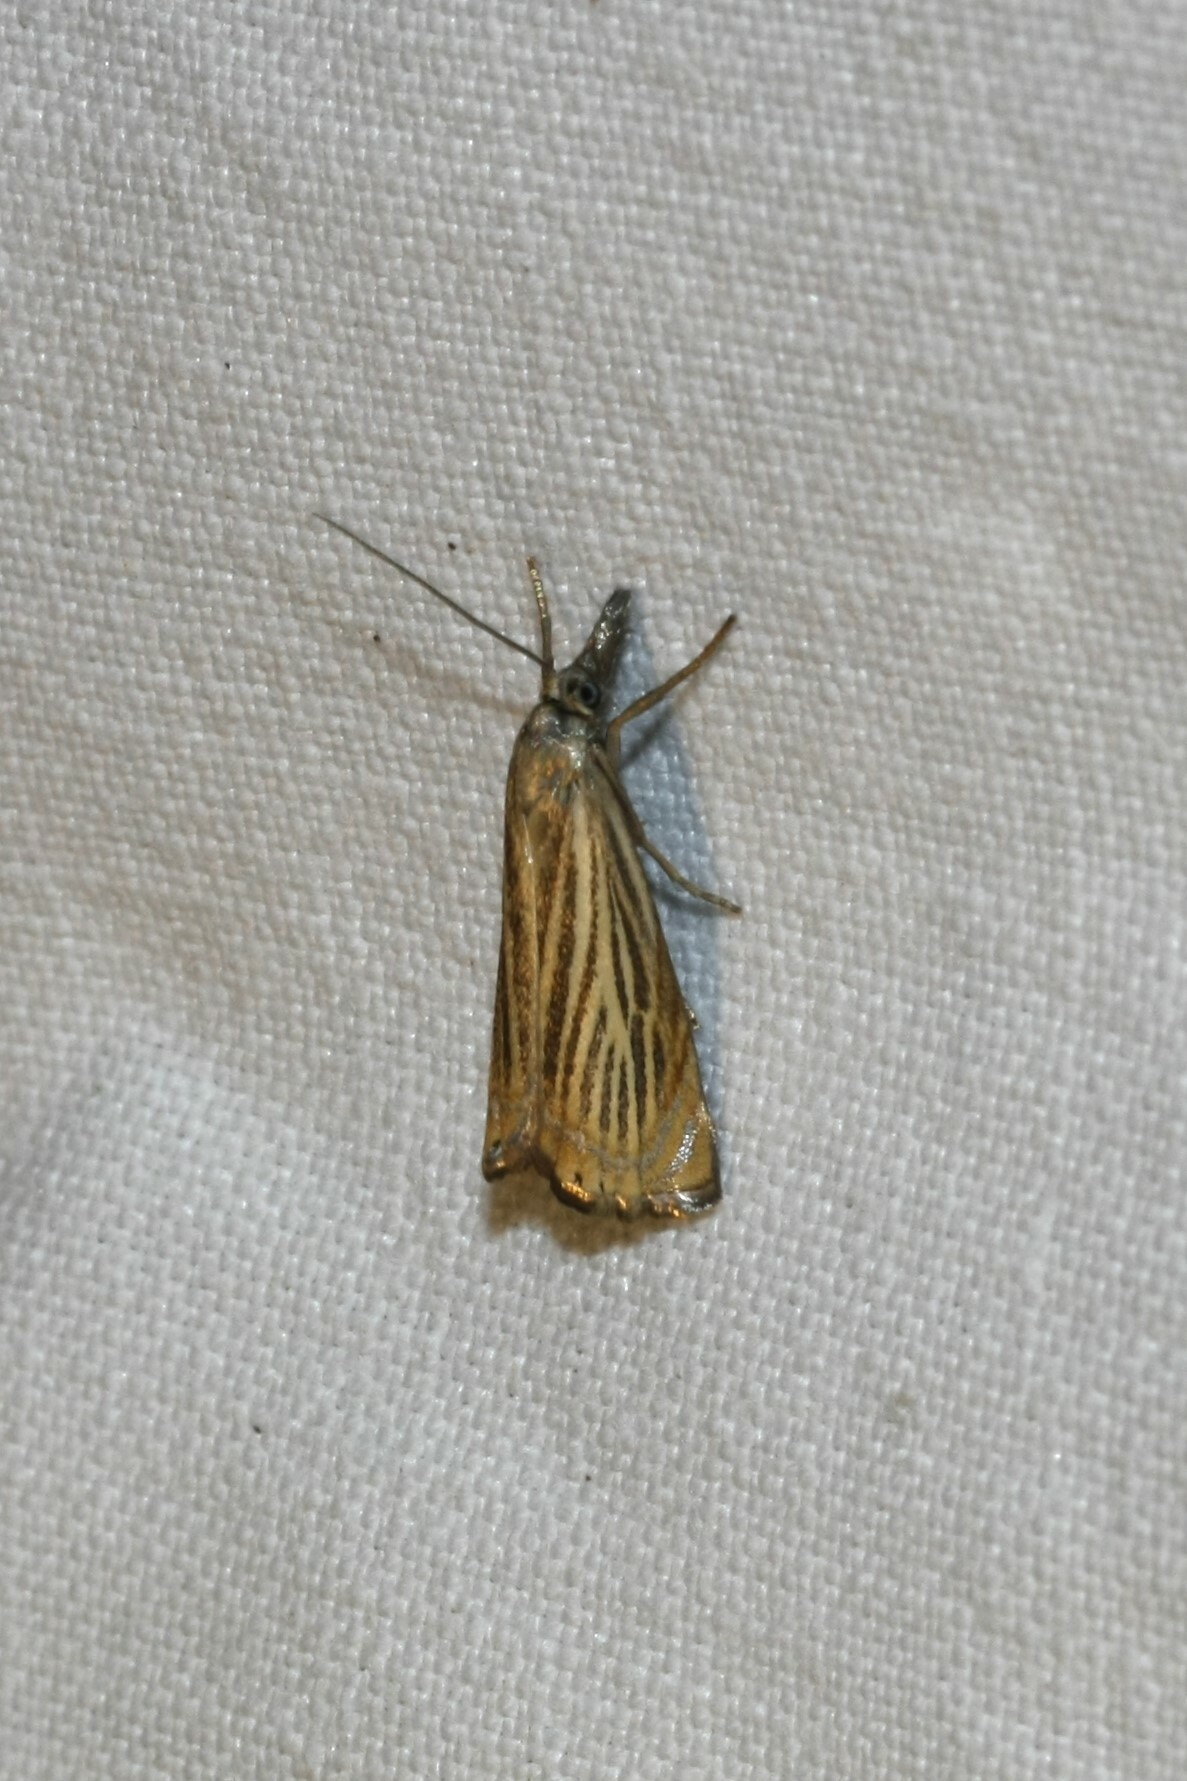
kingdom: Animalia
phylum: Arthropoda
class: Insecta
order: Lepidoptera
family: Crambidae
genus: Chrysoteuchia
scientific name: Chrysoteuchia culmella
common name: Garden grass-veneer
